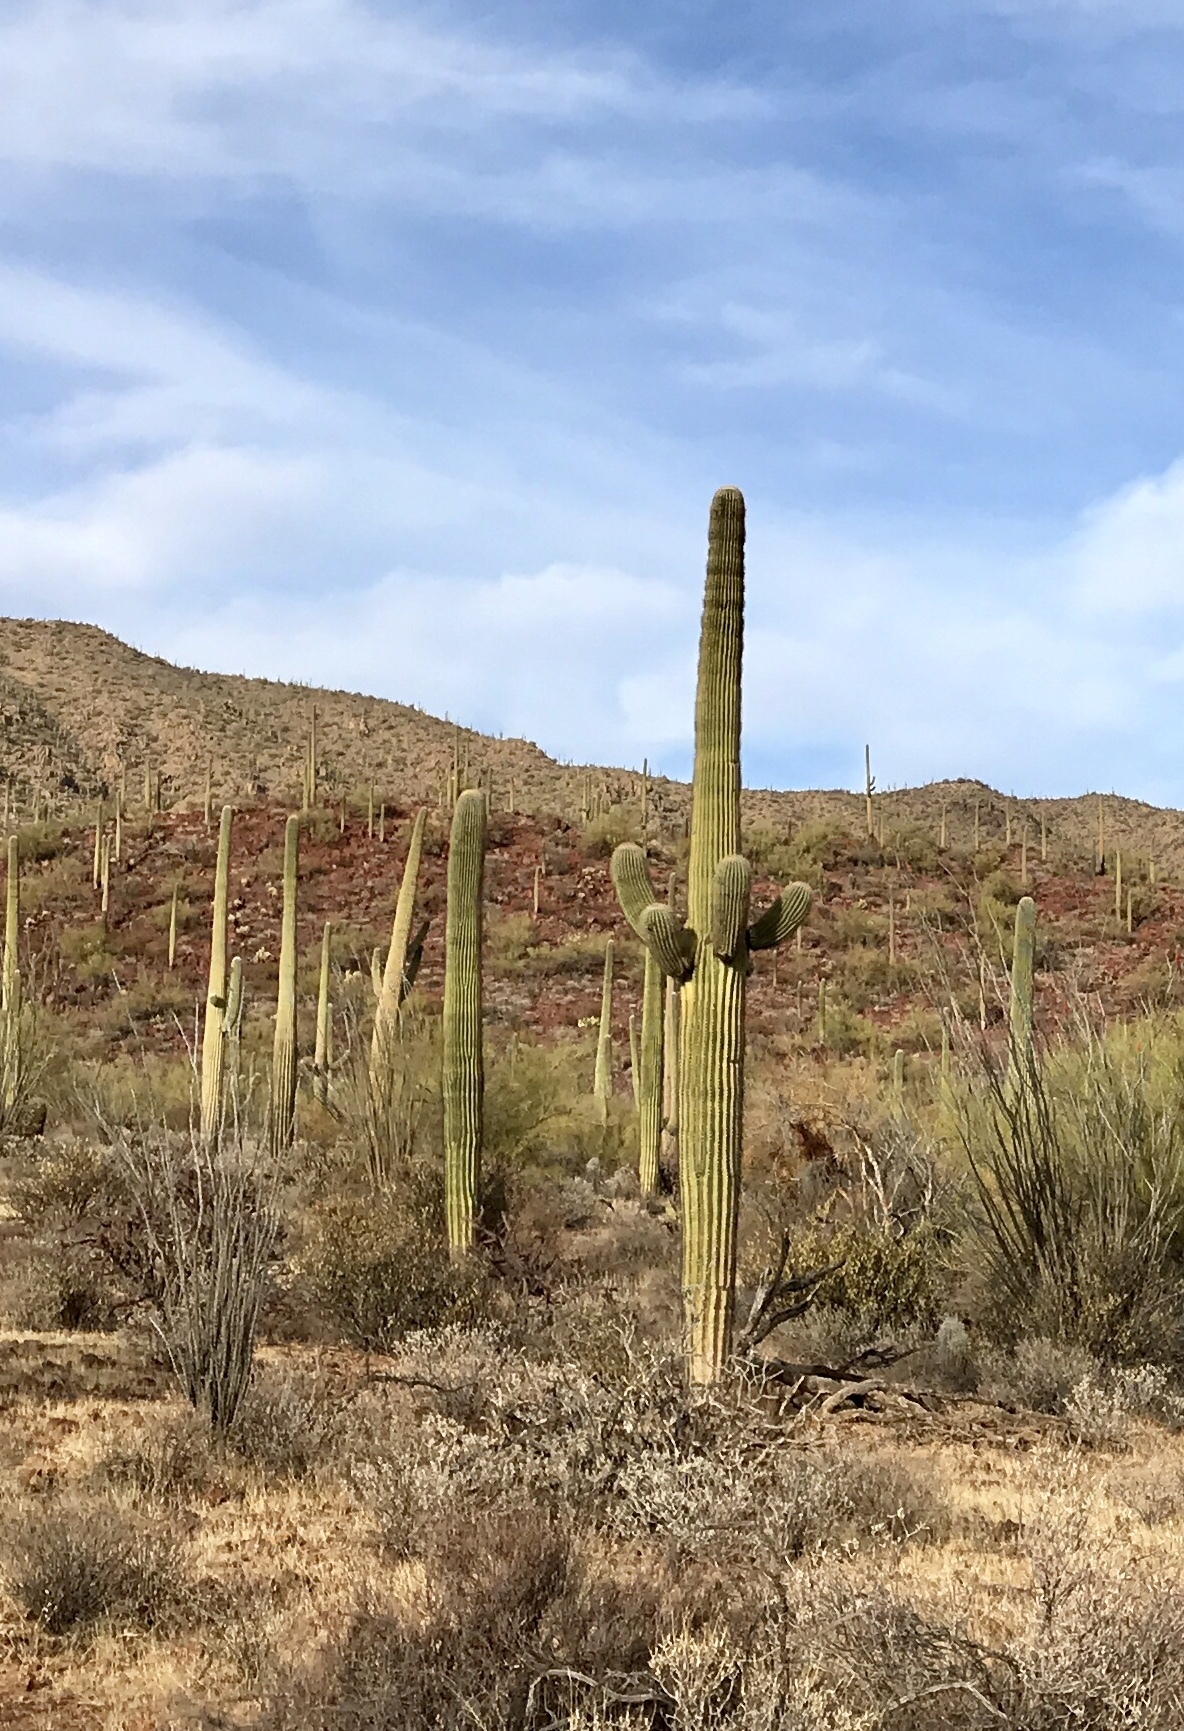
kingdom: Plantae
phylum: Tracheophyta
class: Magnoliopsida
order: Caryophyllales
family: Cactaceae
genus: Carnegiea
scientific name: Carnegiea gigantea
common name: Saguaro
